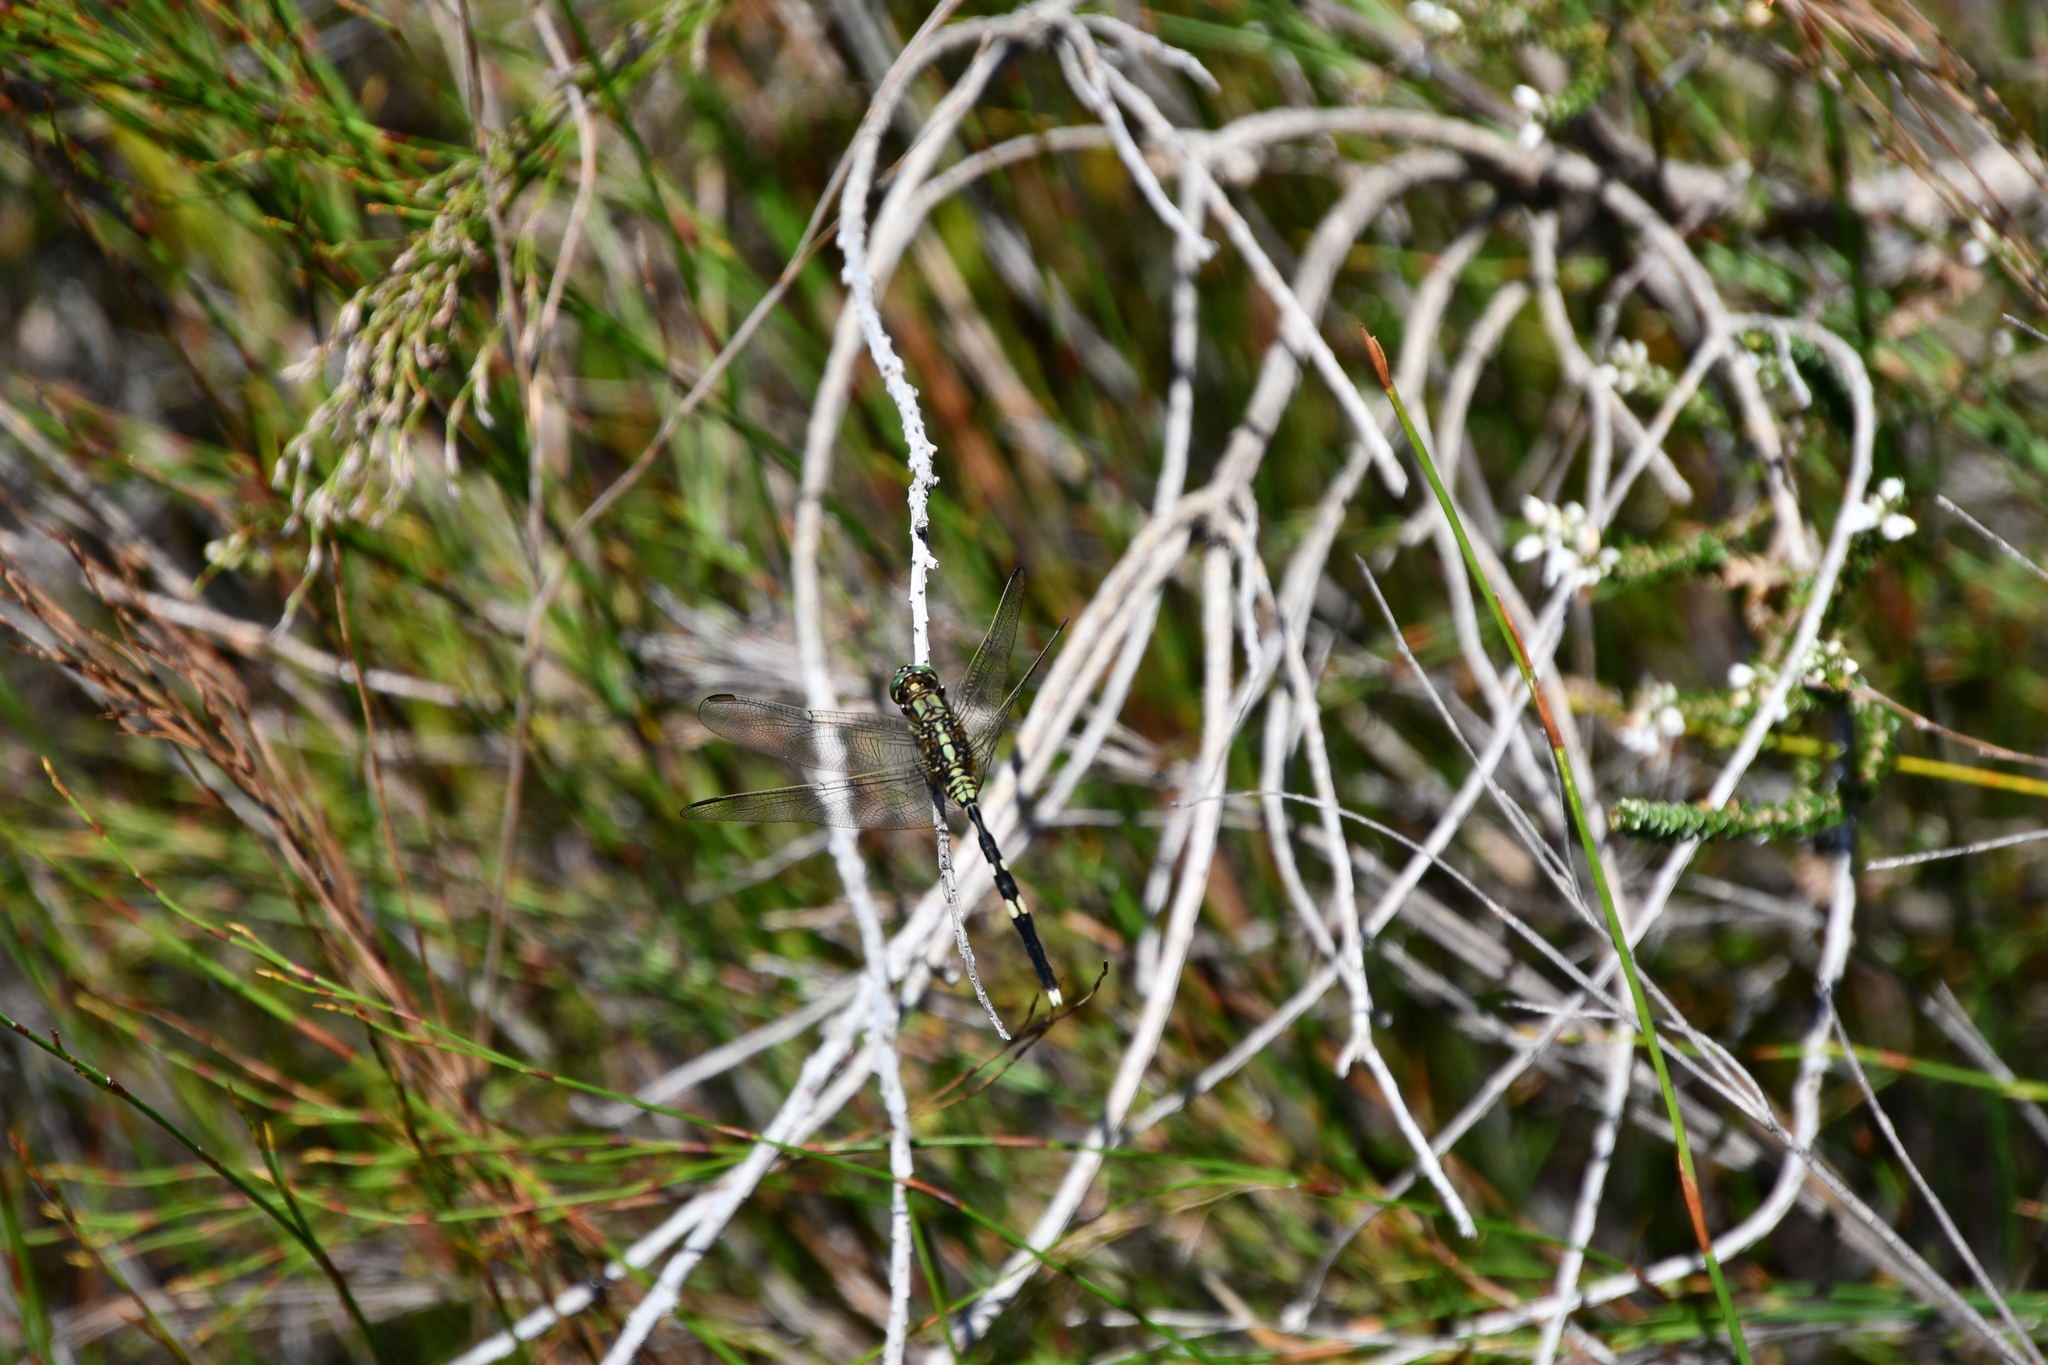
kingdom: Animalia
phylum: Arthropoda
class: Insecta
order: Odonata
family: Libellulidae
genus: Orthetrum
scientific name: Orthetrum sabina
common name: Slender skimmer
